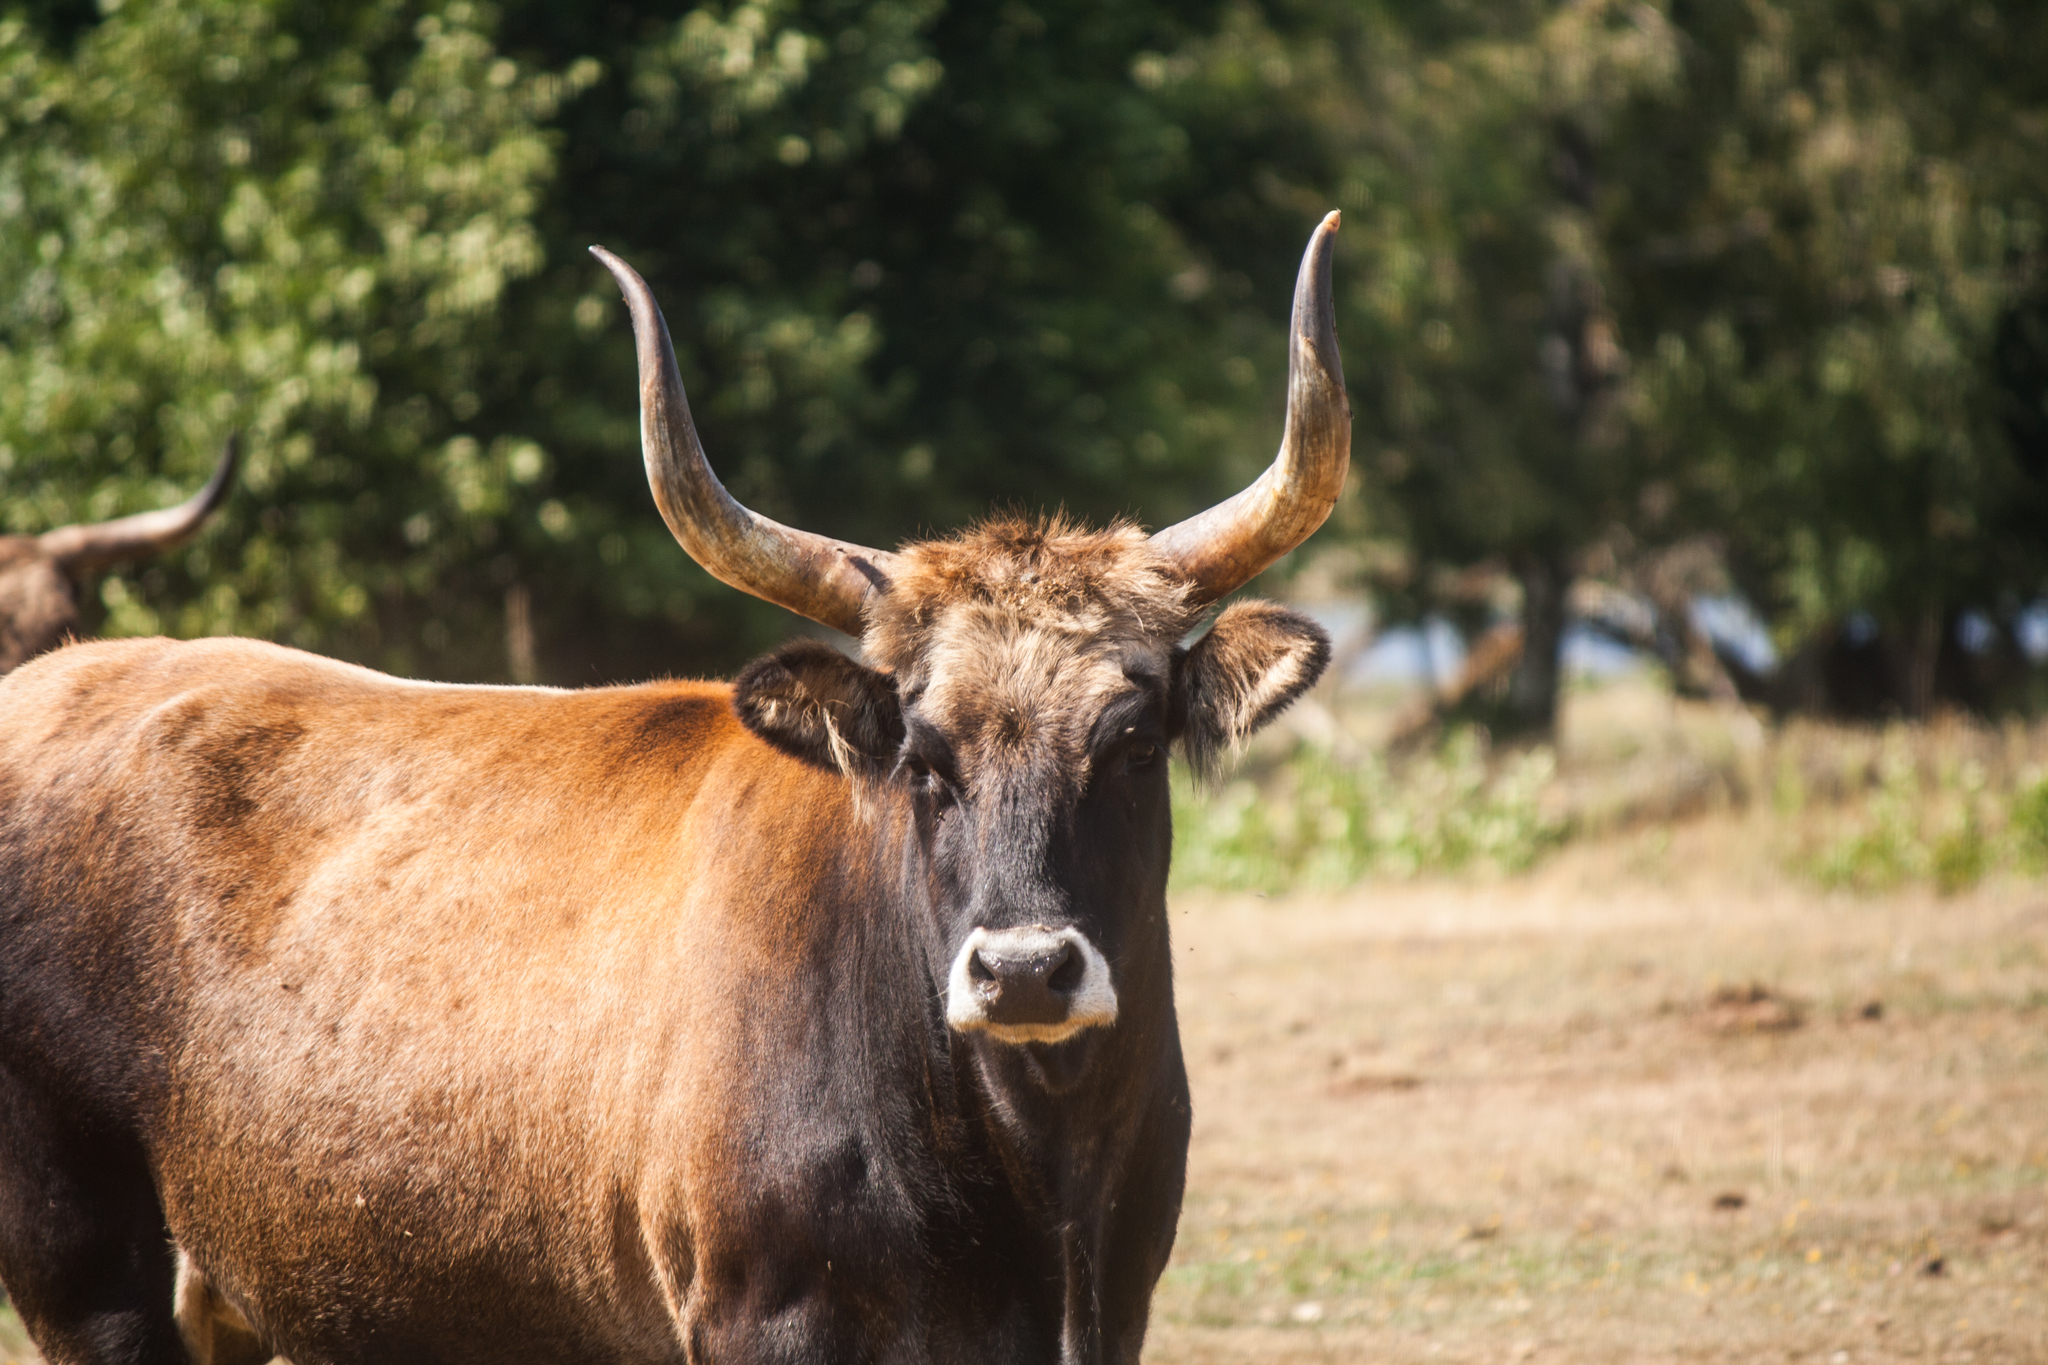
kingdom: Animalia
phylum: Chordata
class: Mammalia
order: Artiodactyla
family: Bovidae
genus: Bos
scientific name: Bos taurus
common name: Domesticated cattle
